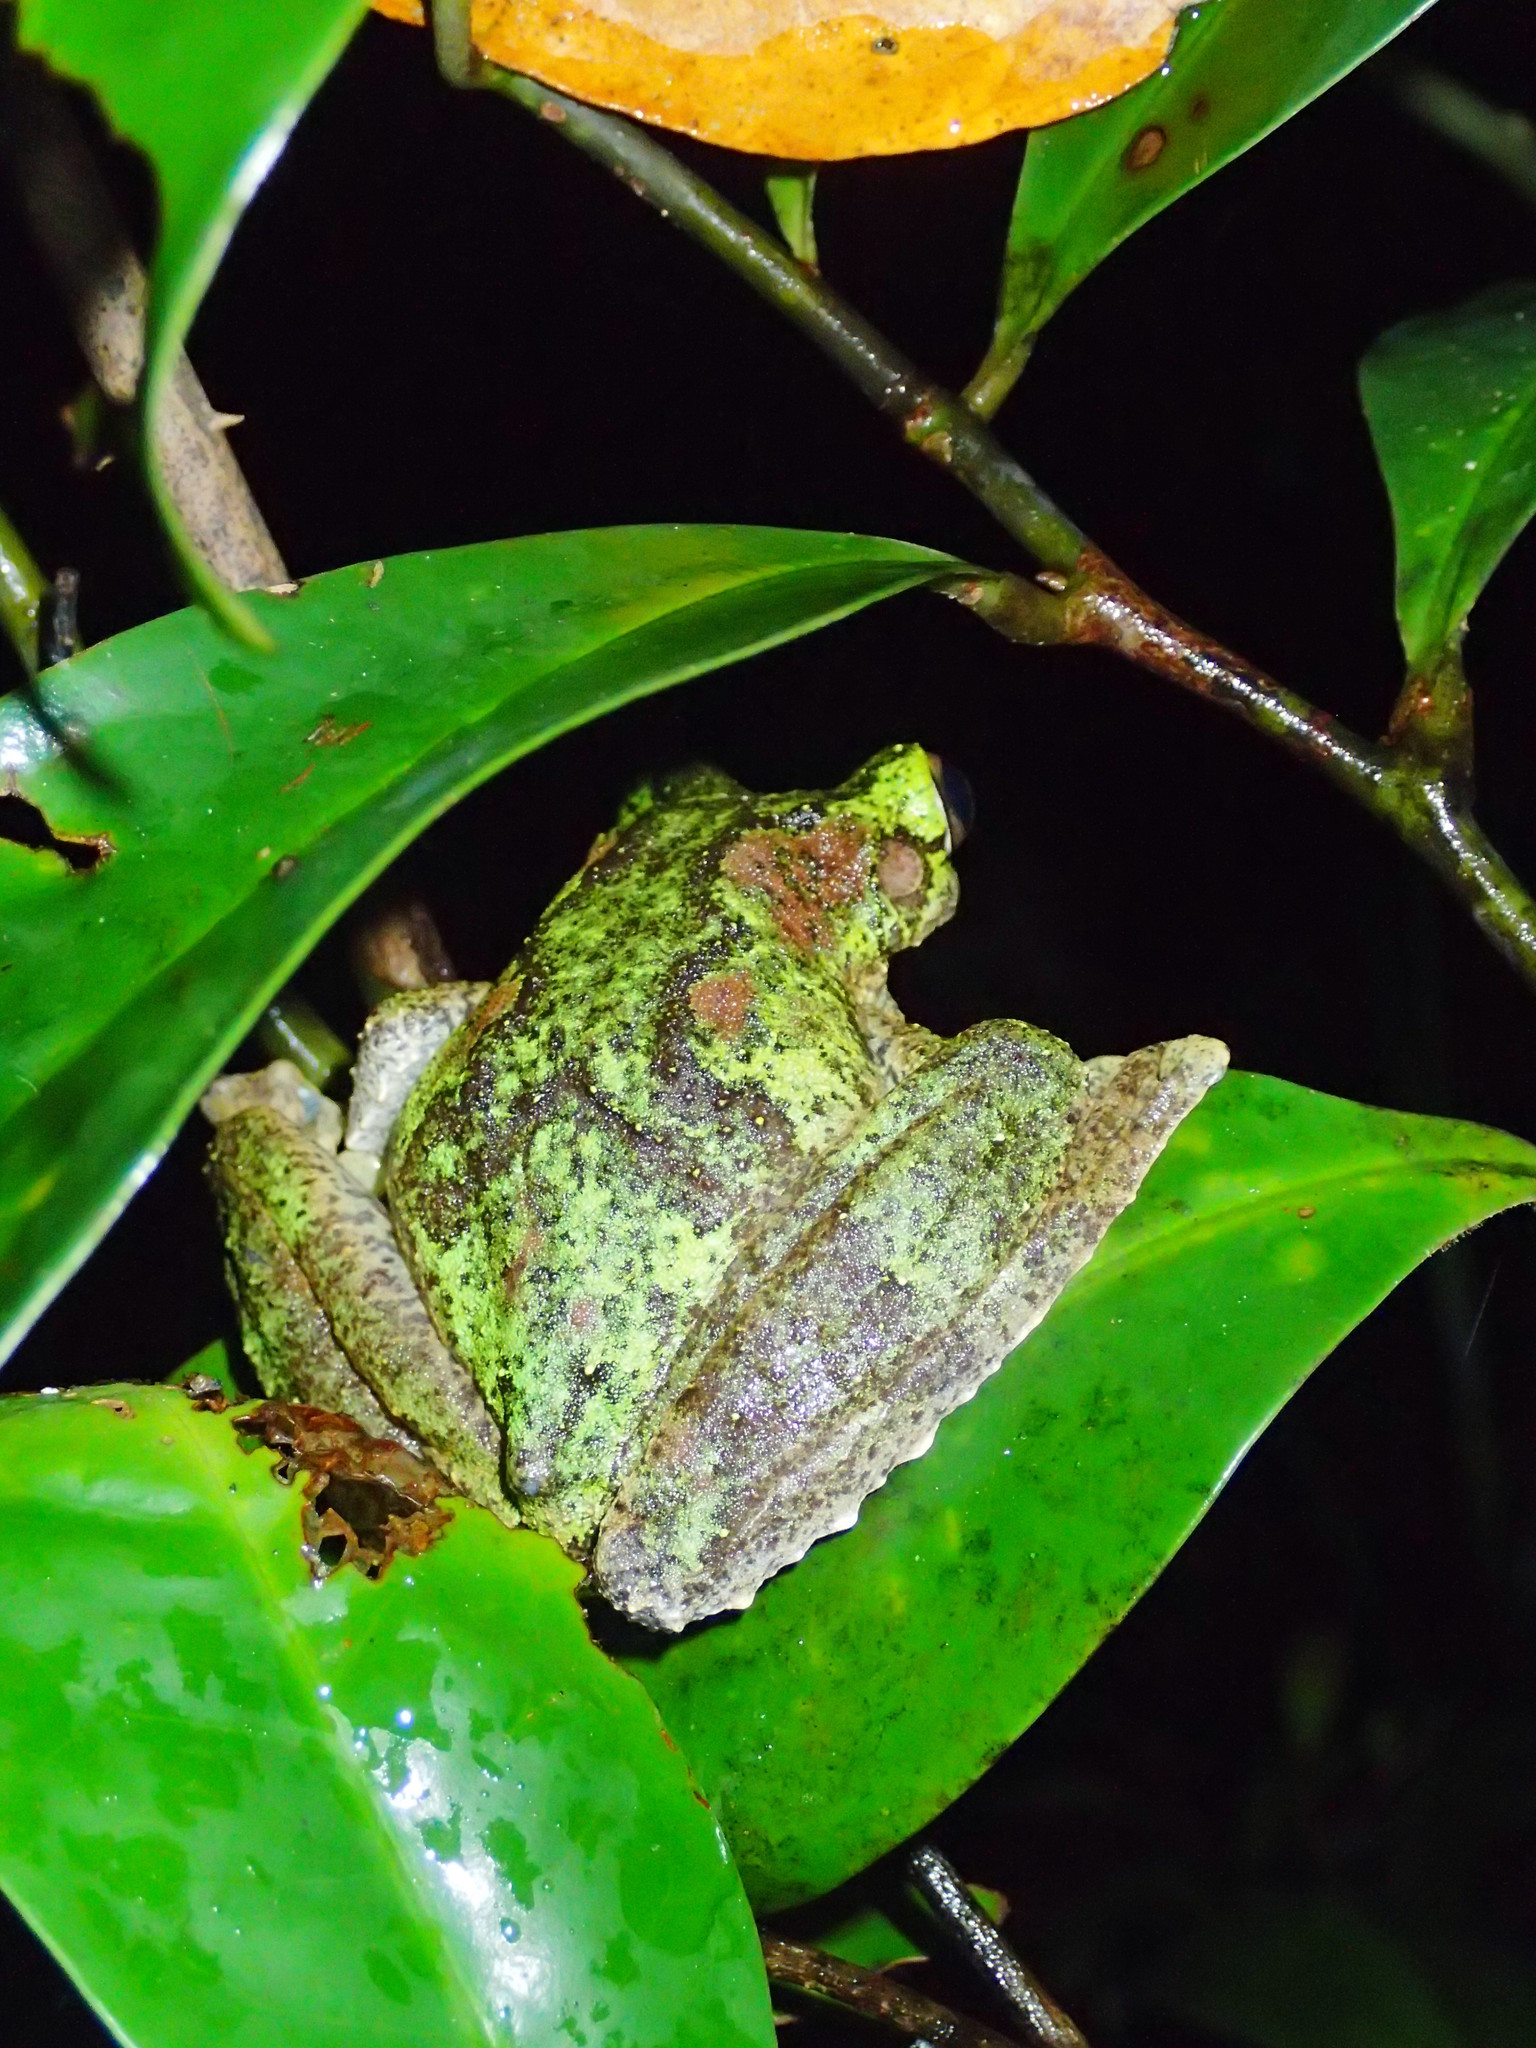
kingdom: Animalia
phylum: Chordata
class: Amphibia
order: Anura
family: Pelodryadidae
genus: Ranoidea
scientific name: Ranoidea serrata
